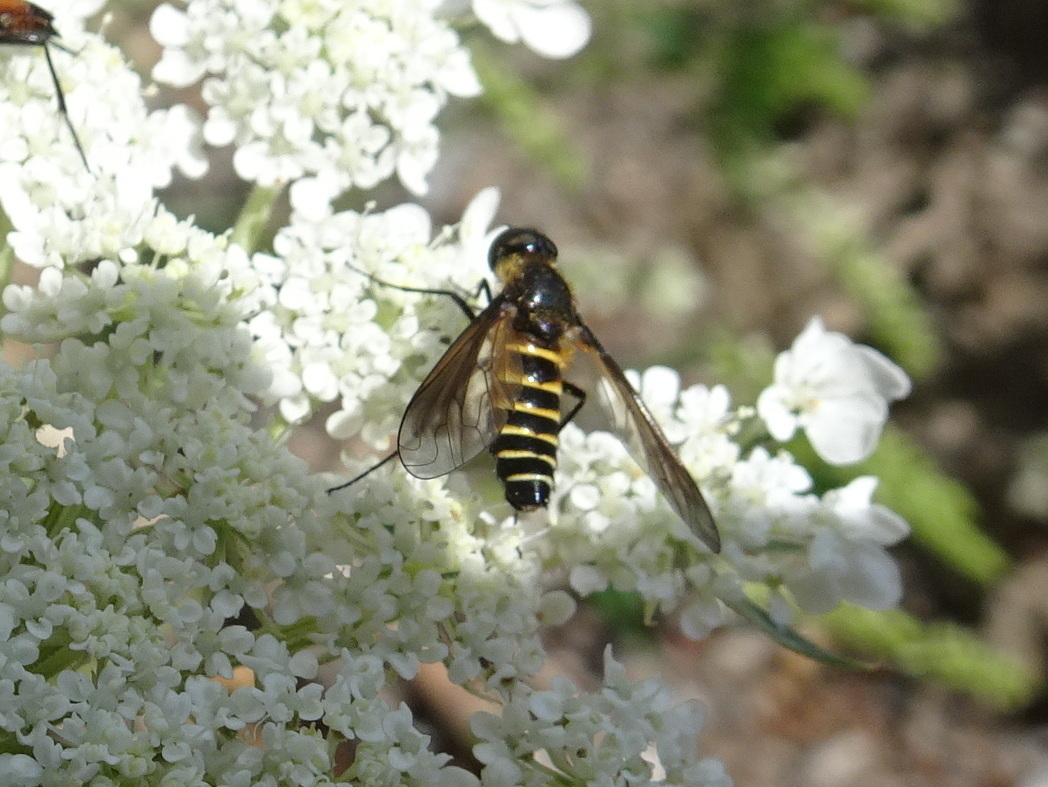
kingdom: Animalia
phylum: Arthropoda
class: Insecta
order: Diptera
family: Bombyliidae
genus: Lomatia
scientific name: Lomatia lateralis
